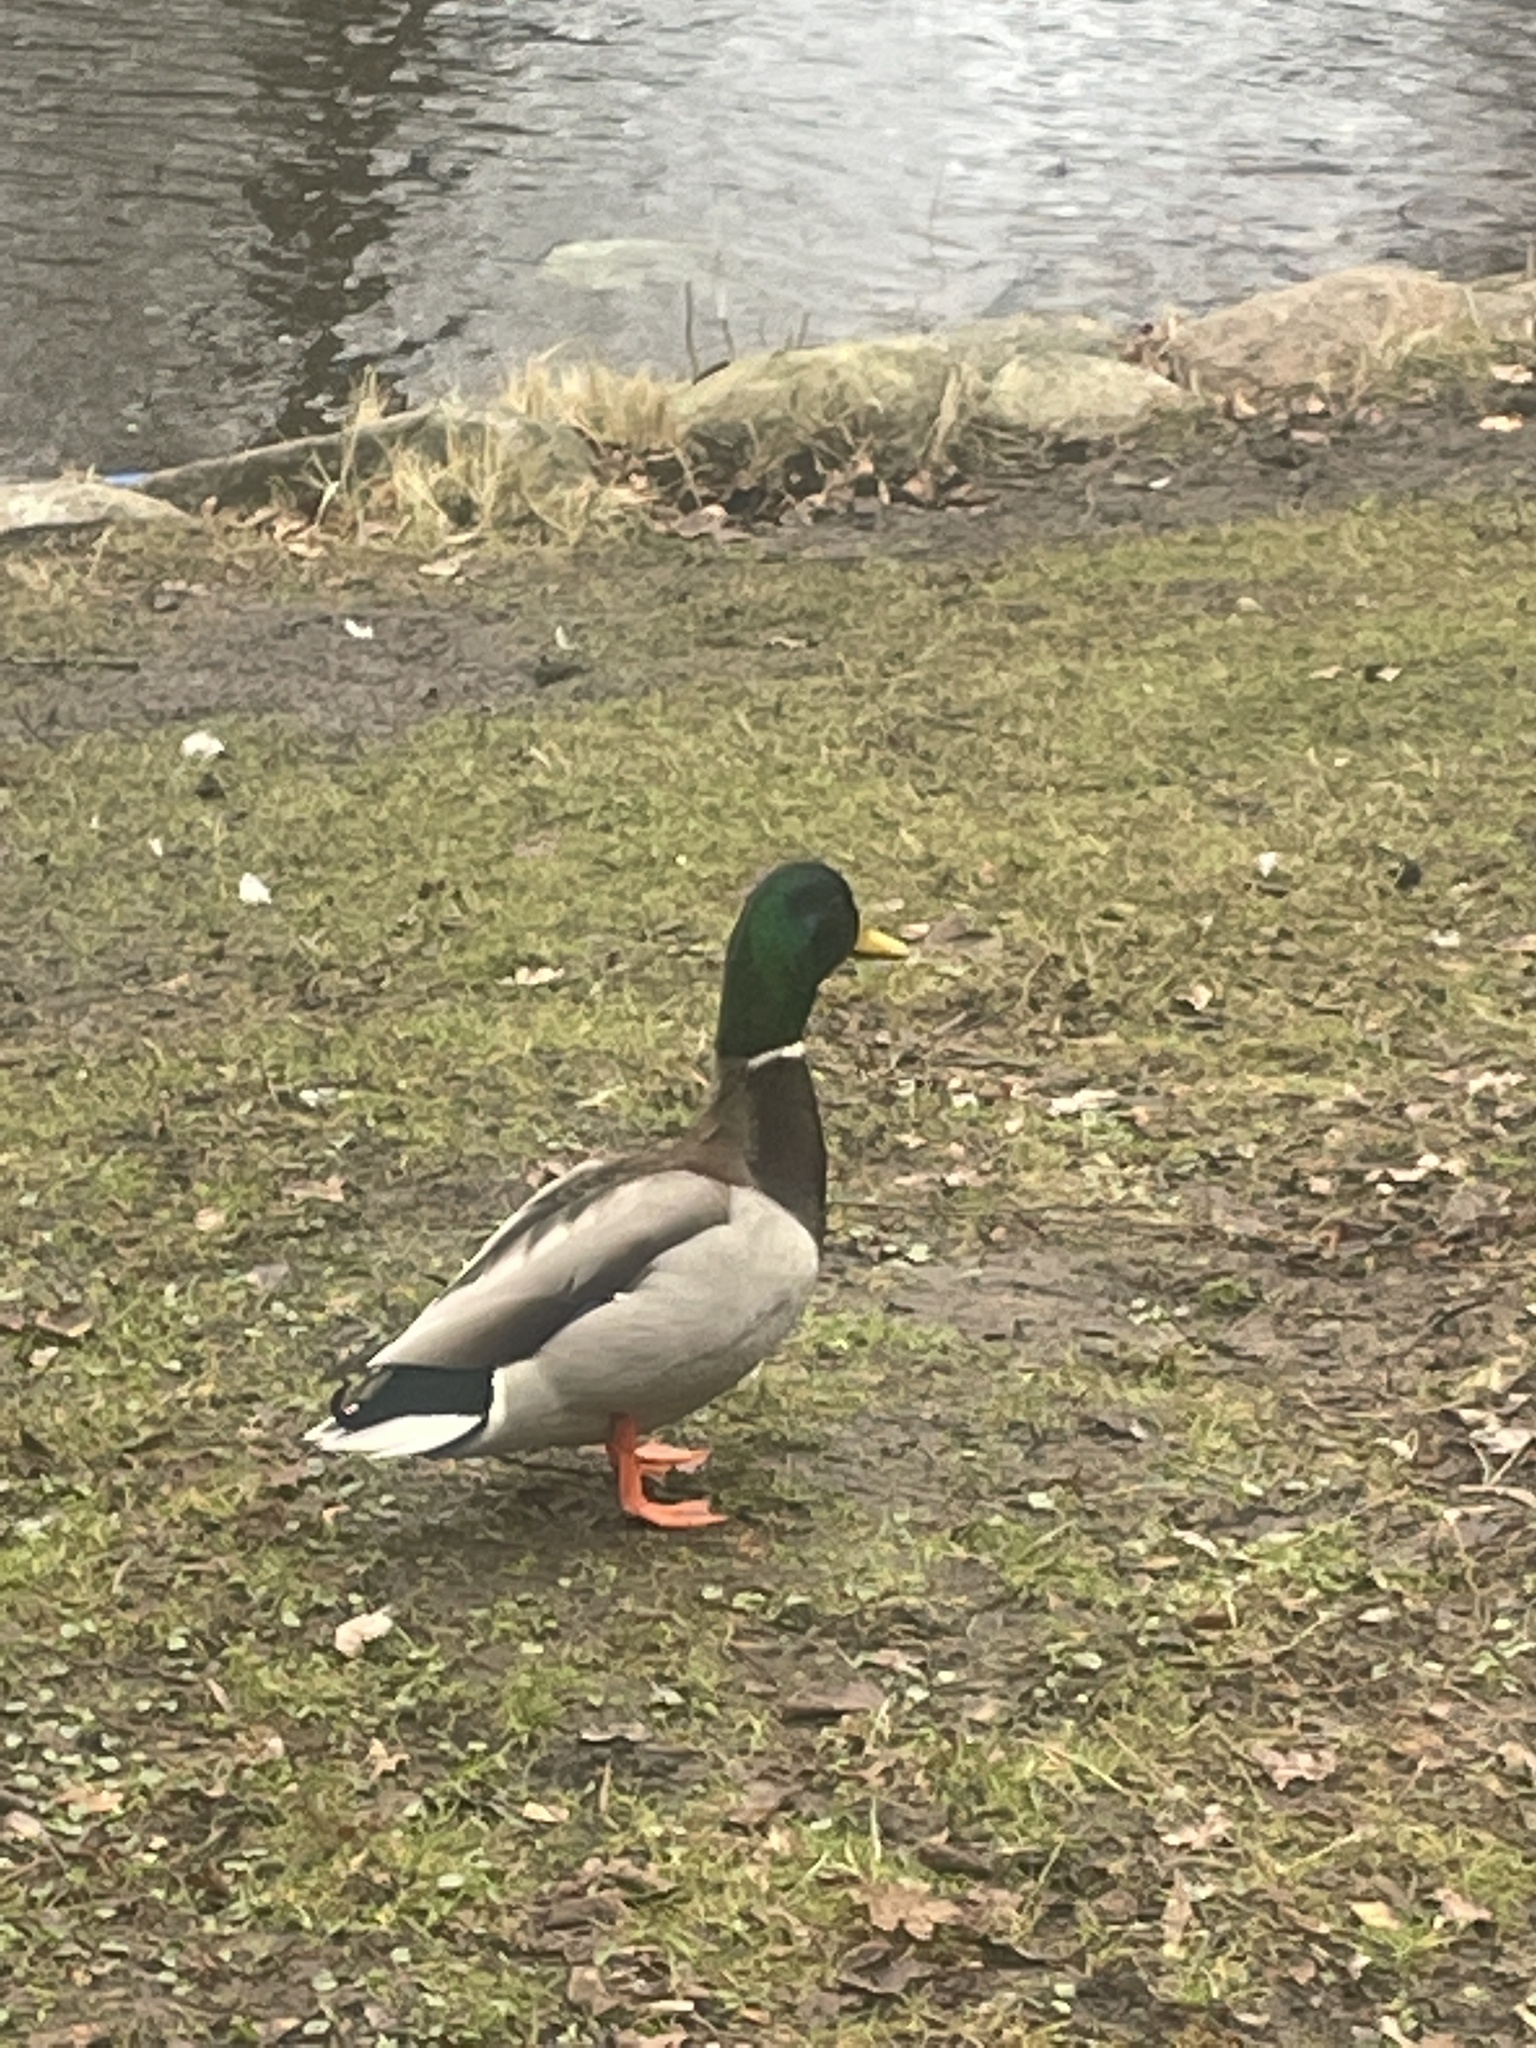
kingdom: Animalia
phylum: Chordata
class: Aves
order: Anseriformes
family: Anatidae
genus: Anas
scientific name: Anas platyrhynchos
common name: Mallard
